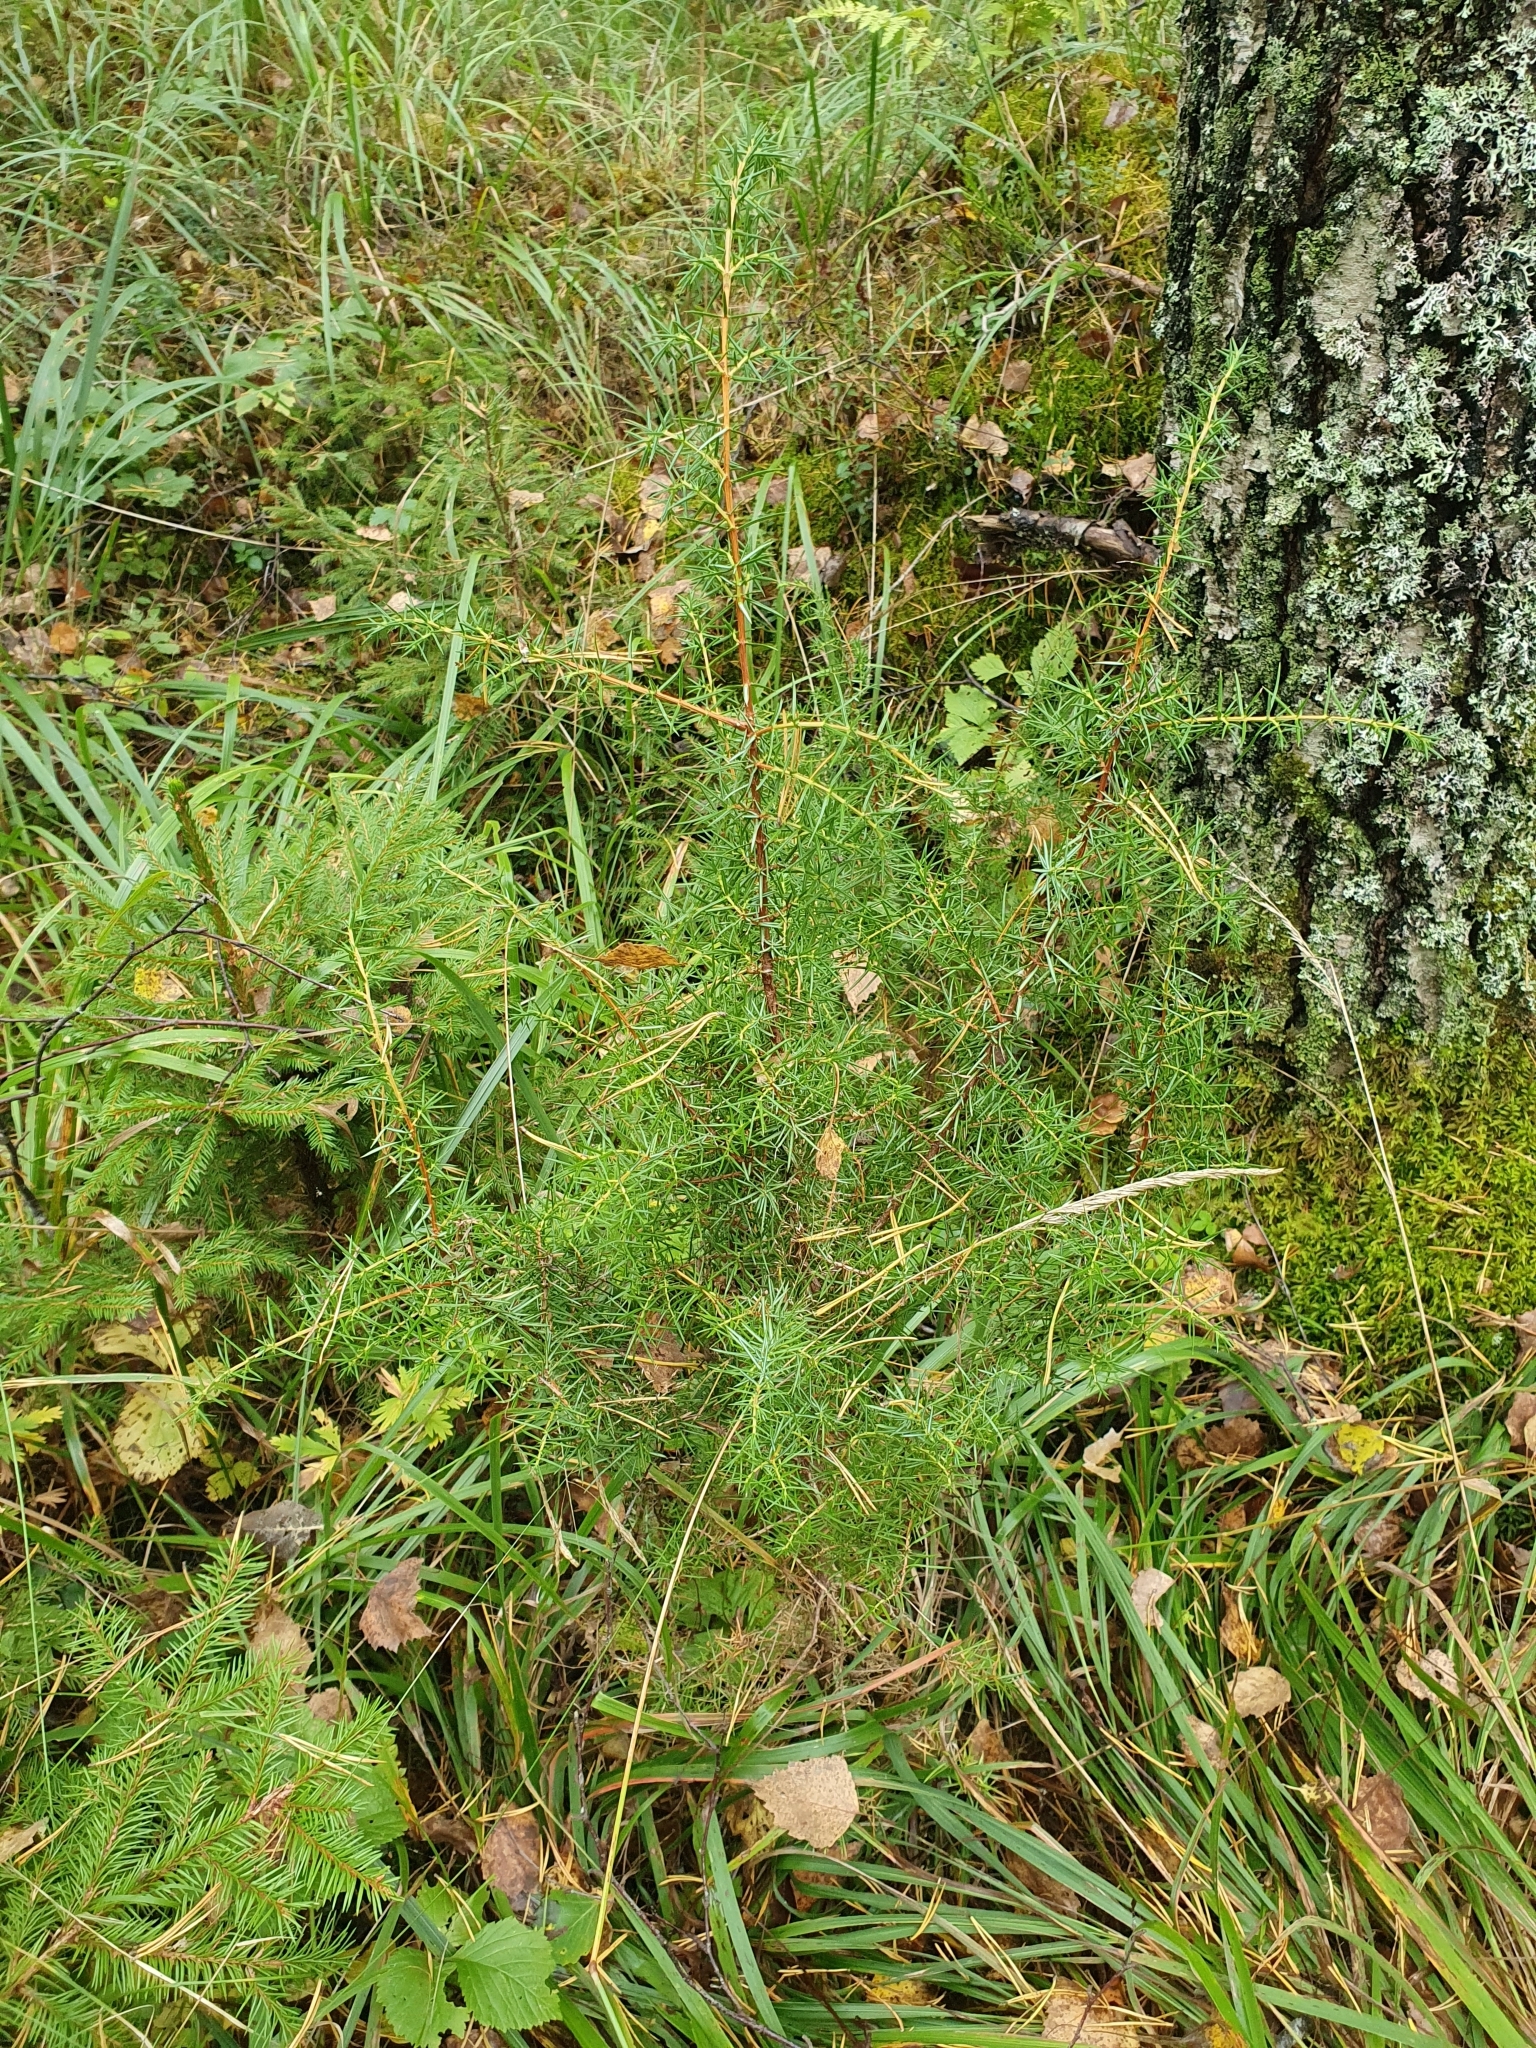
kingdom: Plantae
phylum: Tracheophyta
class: Pinopsida
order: Pinales
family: Cupressaceae
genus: Juniperus
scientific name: Juniperus communis
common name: Common juniper
